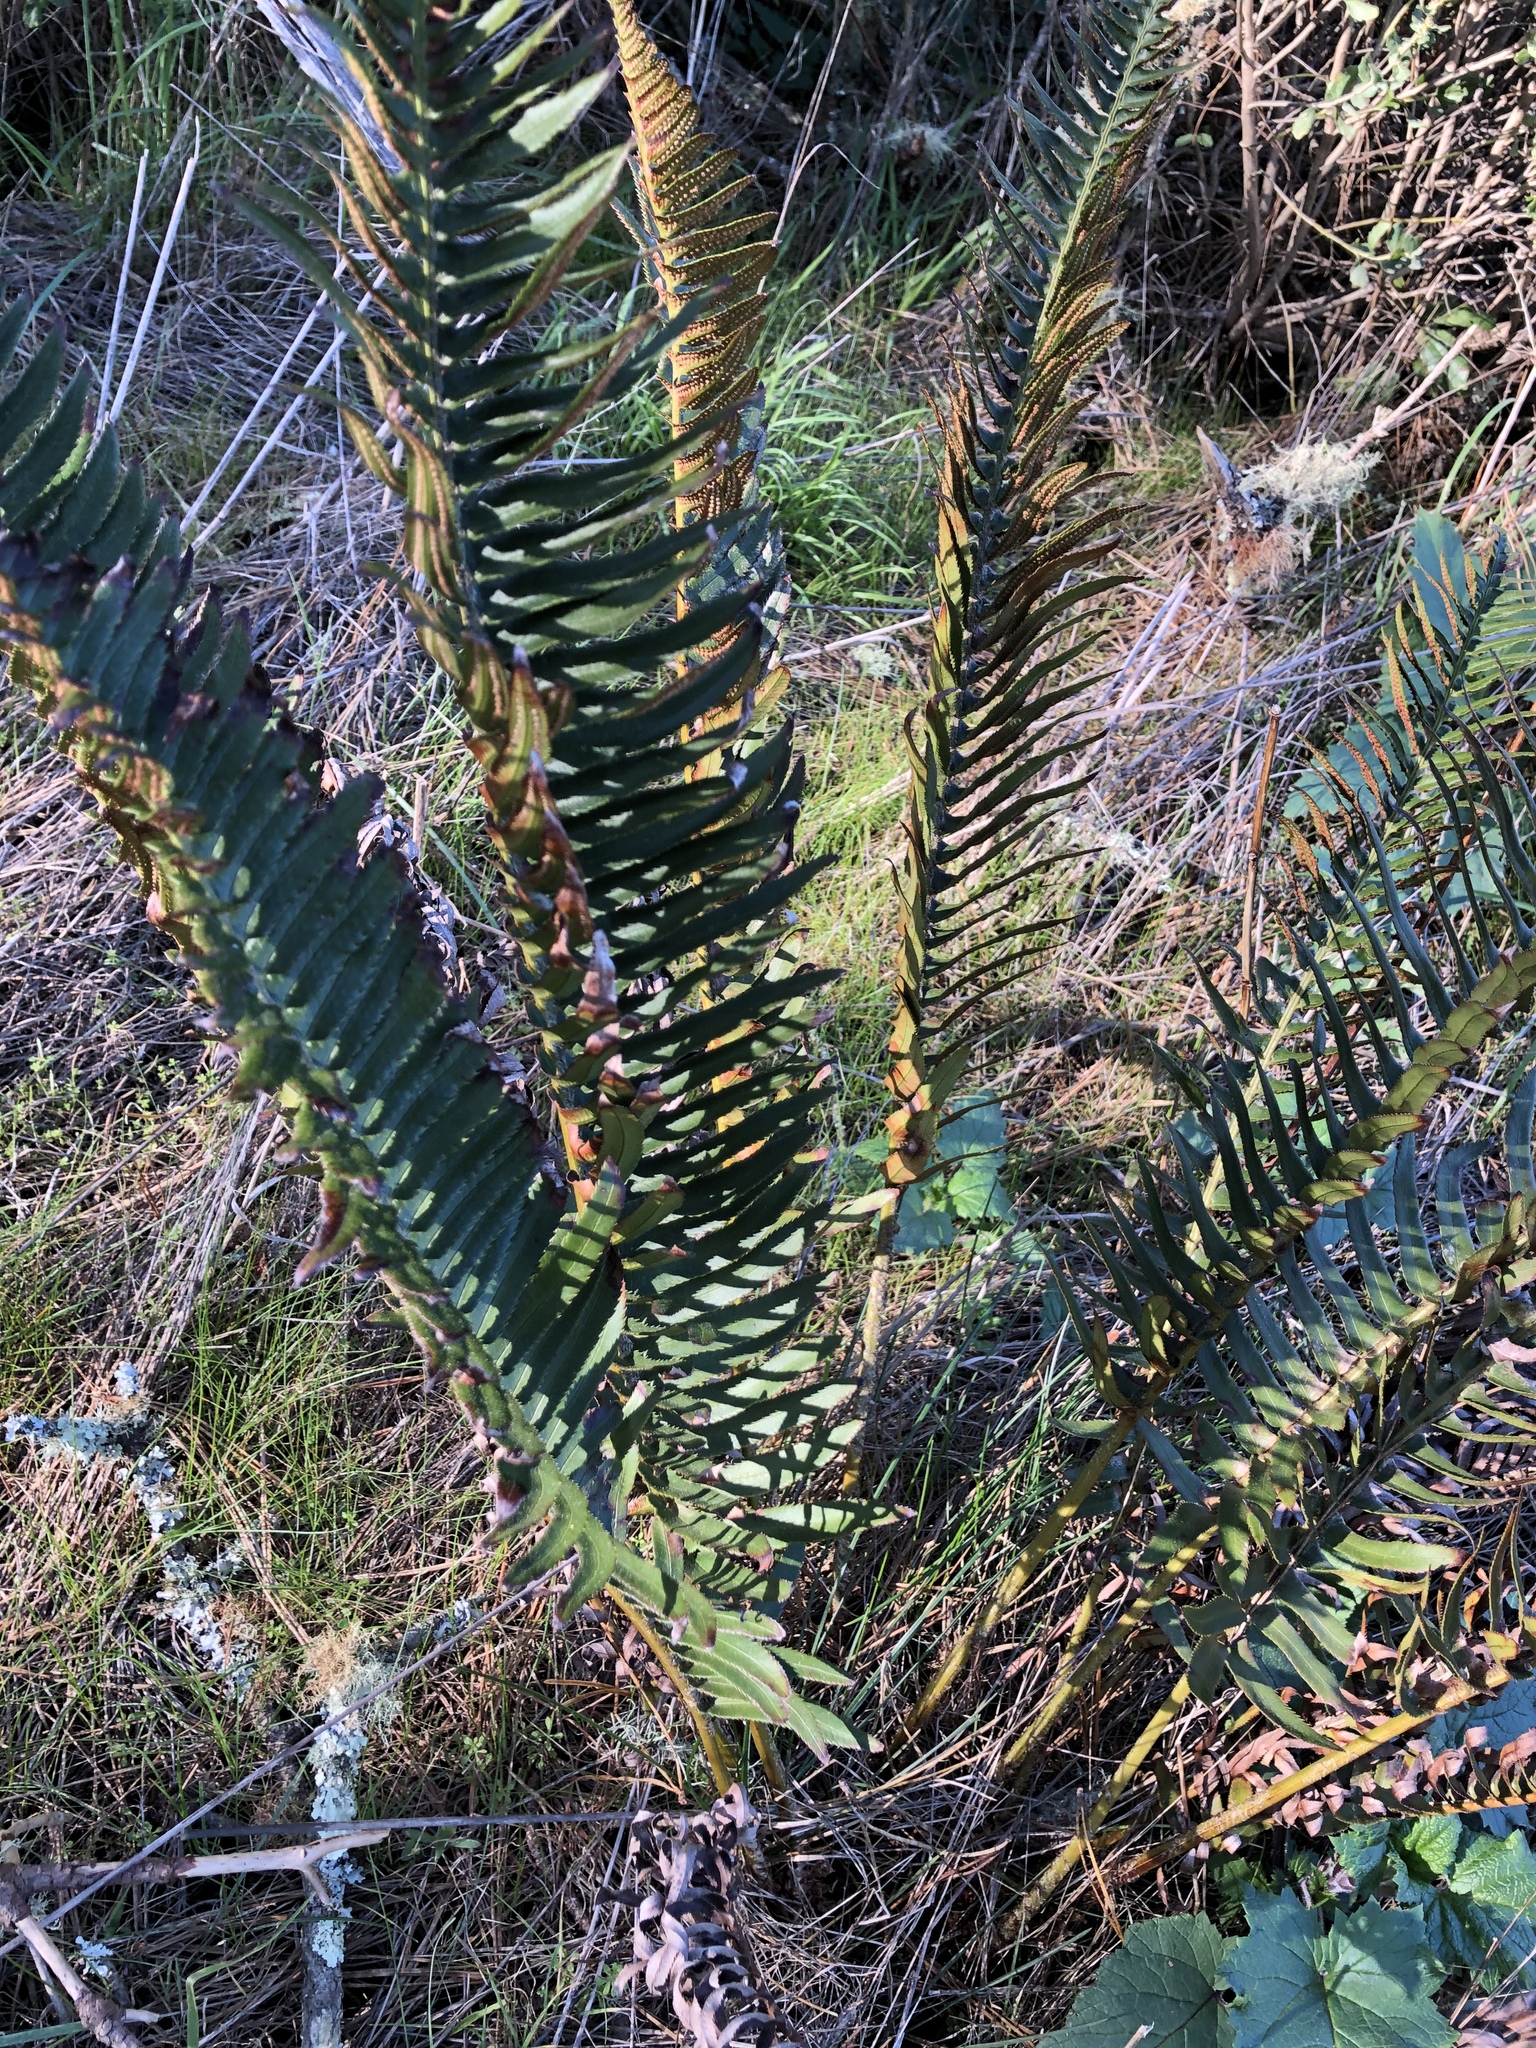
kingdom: Plantae
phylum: Tracheophyta
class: Polypodiopsida
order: Polypodiales
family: Dryopteridaceae
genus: Polystichum
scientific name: Polystichum munitum
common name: Western sword-fern
